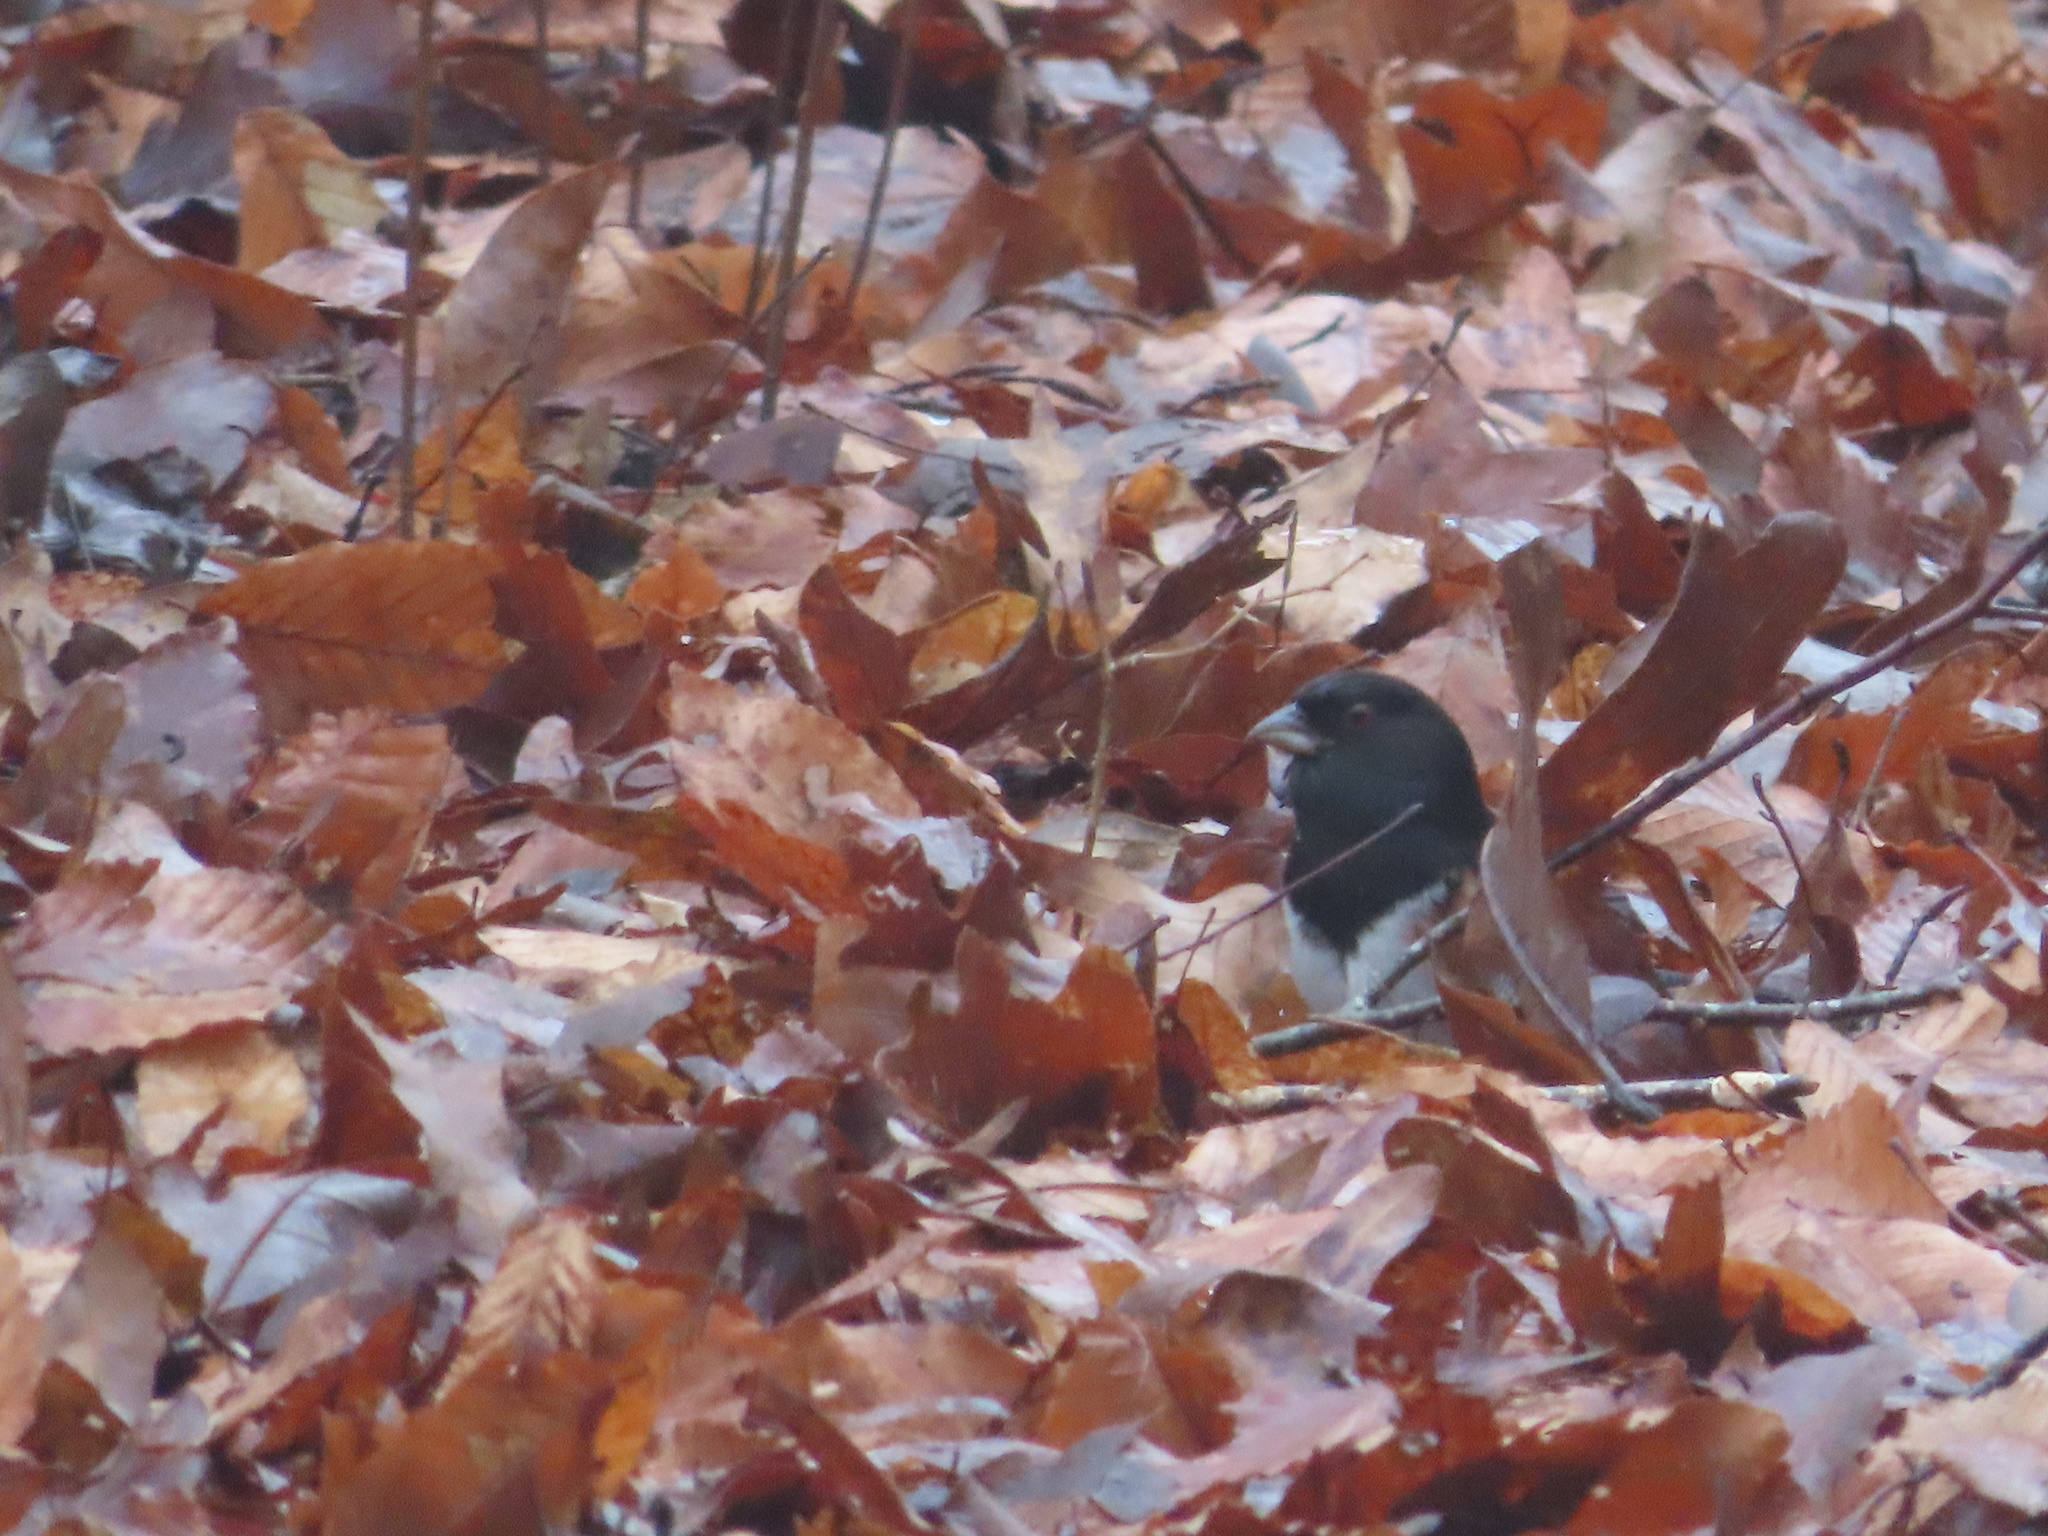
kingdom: Animalia
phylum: Chordata
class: Aves
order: Passeriformes
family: Passerellidae
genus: Pipilo
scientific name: Pipilo erythrophthalmus
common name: Eastern towhee
